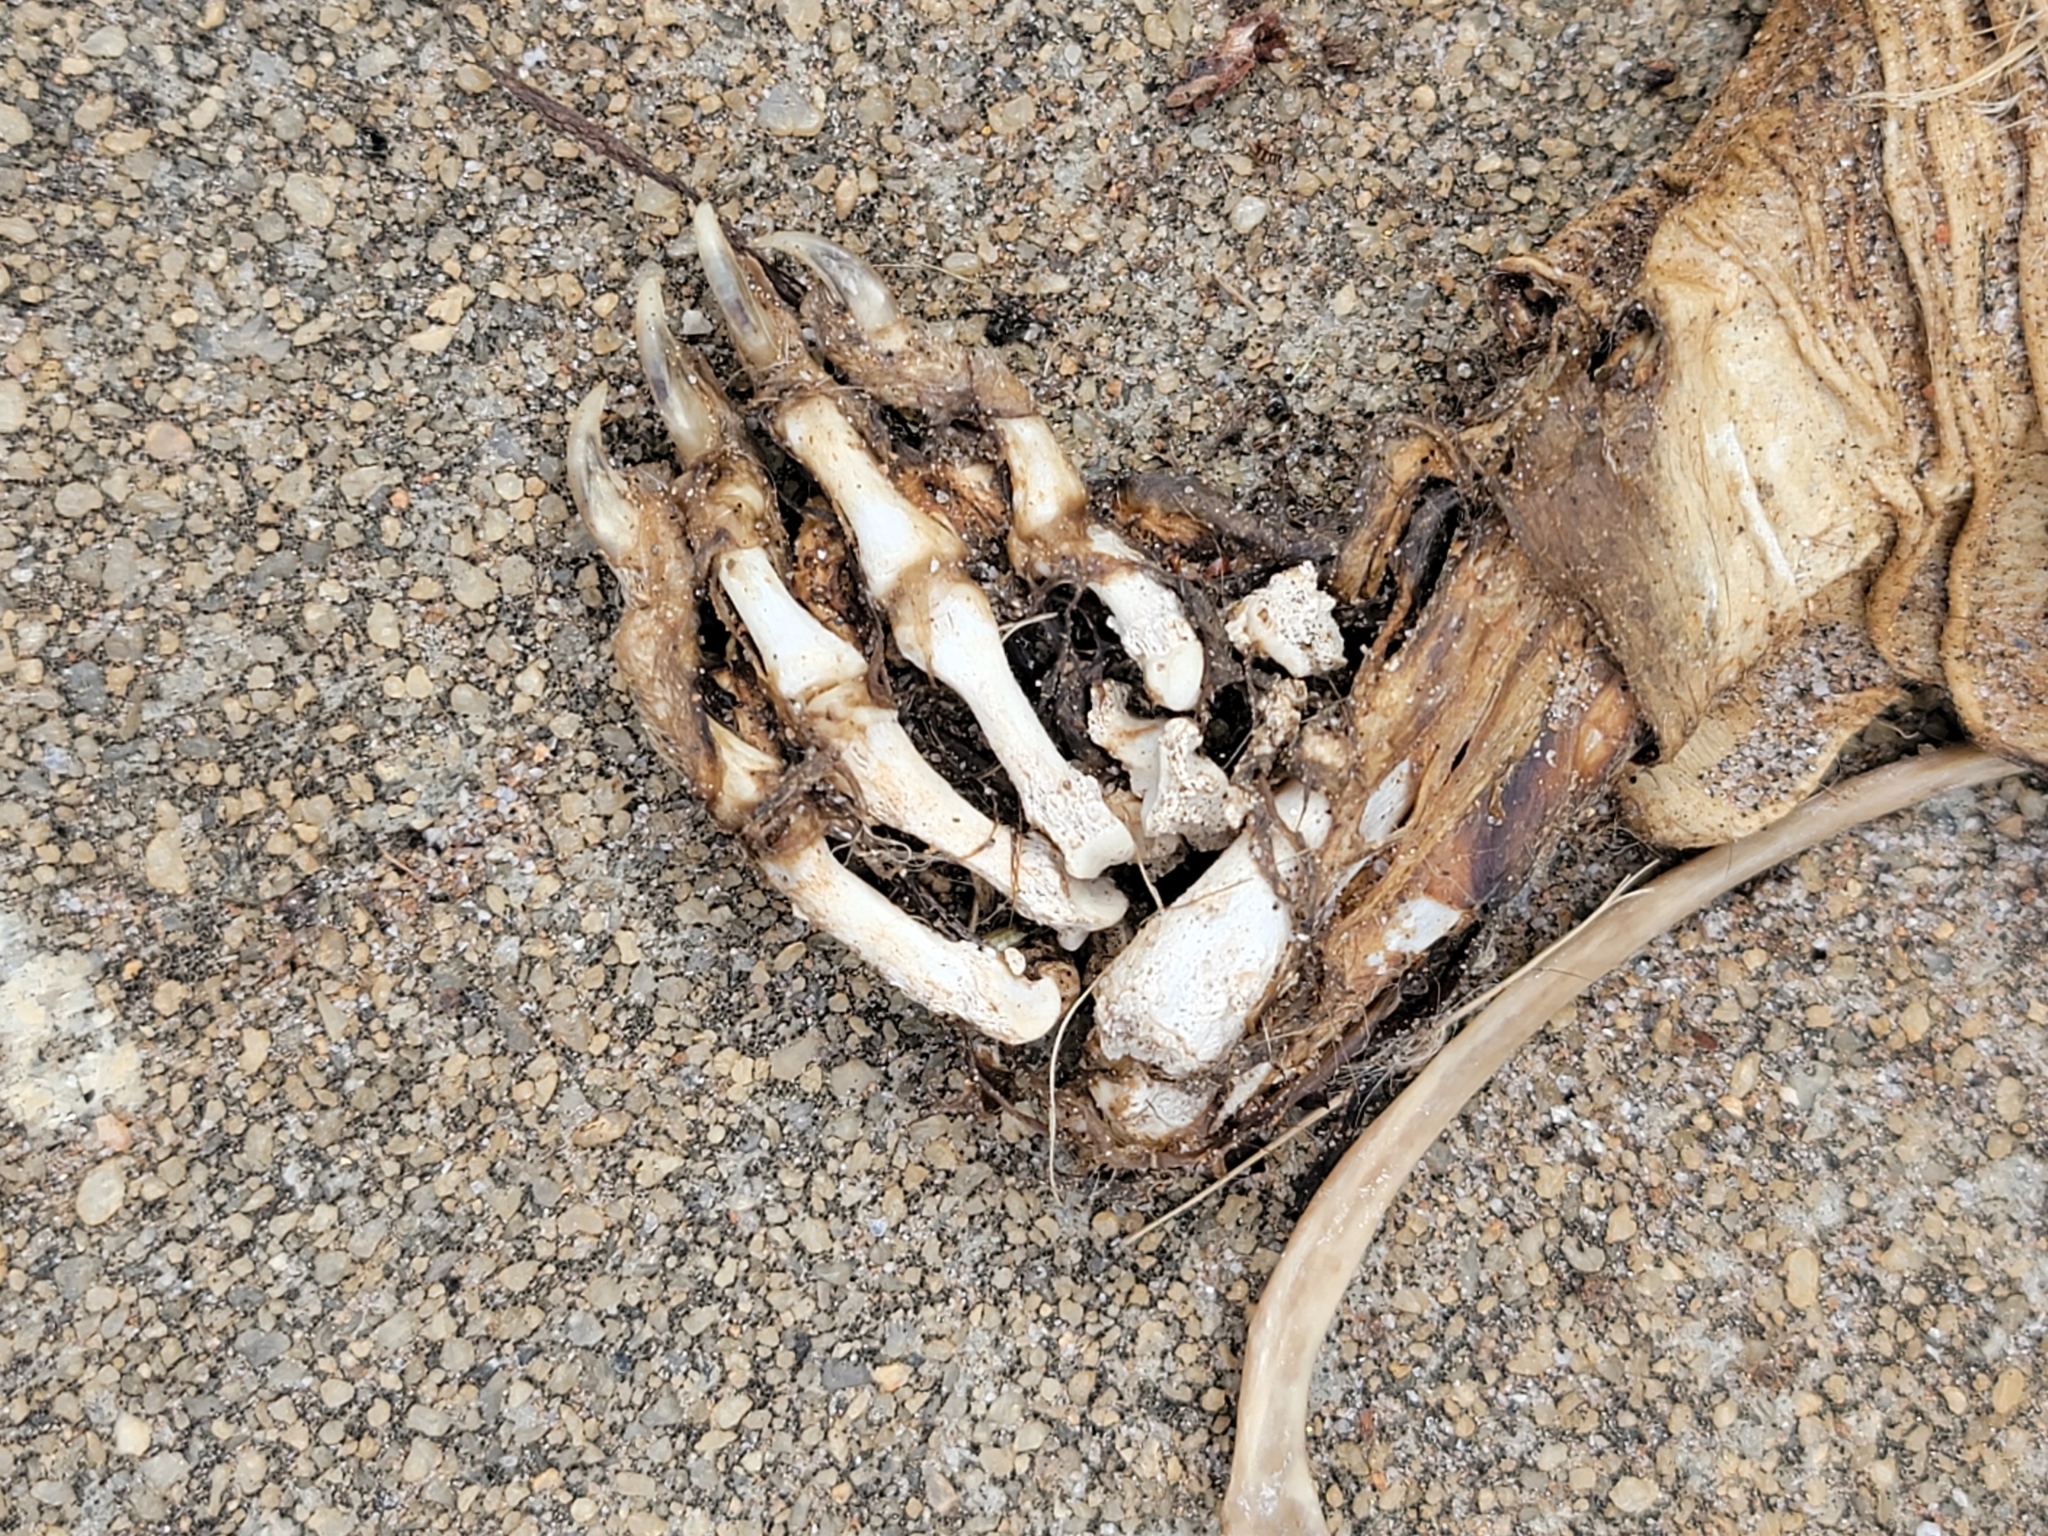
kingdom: Animalia
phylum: Chordata
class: Mammalia
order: Didelphimorphia
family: Didelphidae
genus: Didelphis
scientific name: Didelphis virginiana
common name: Virginia opossum
